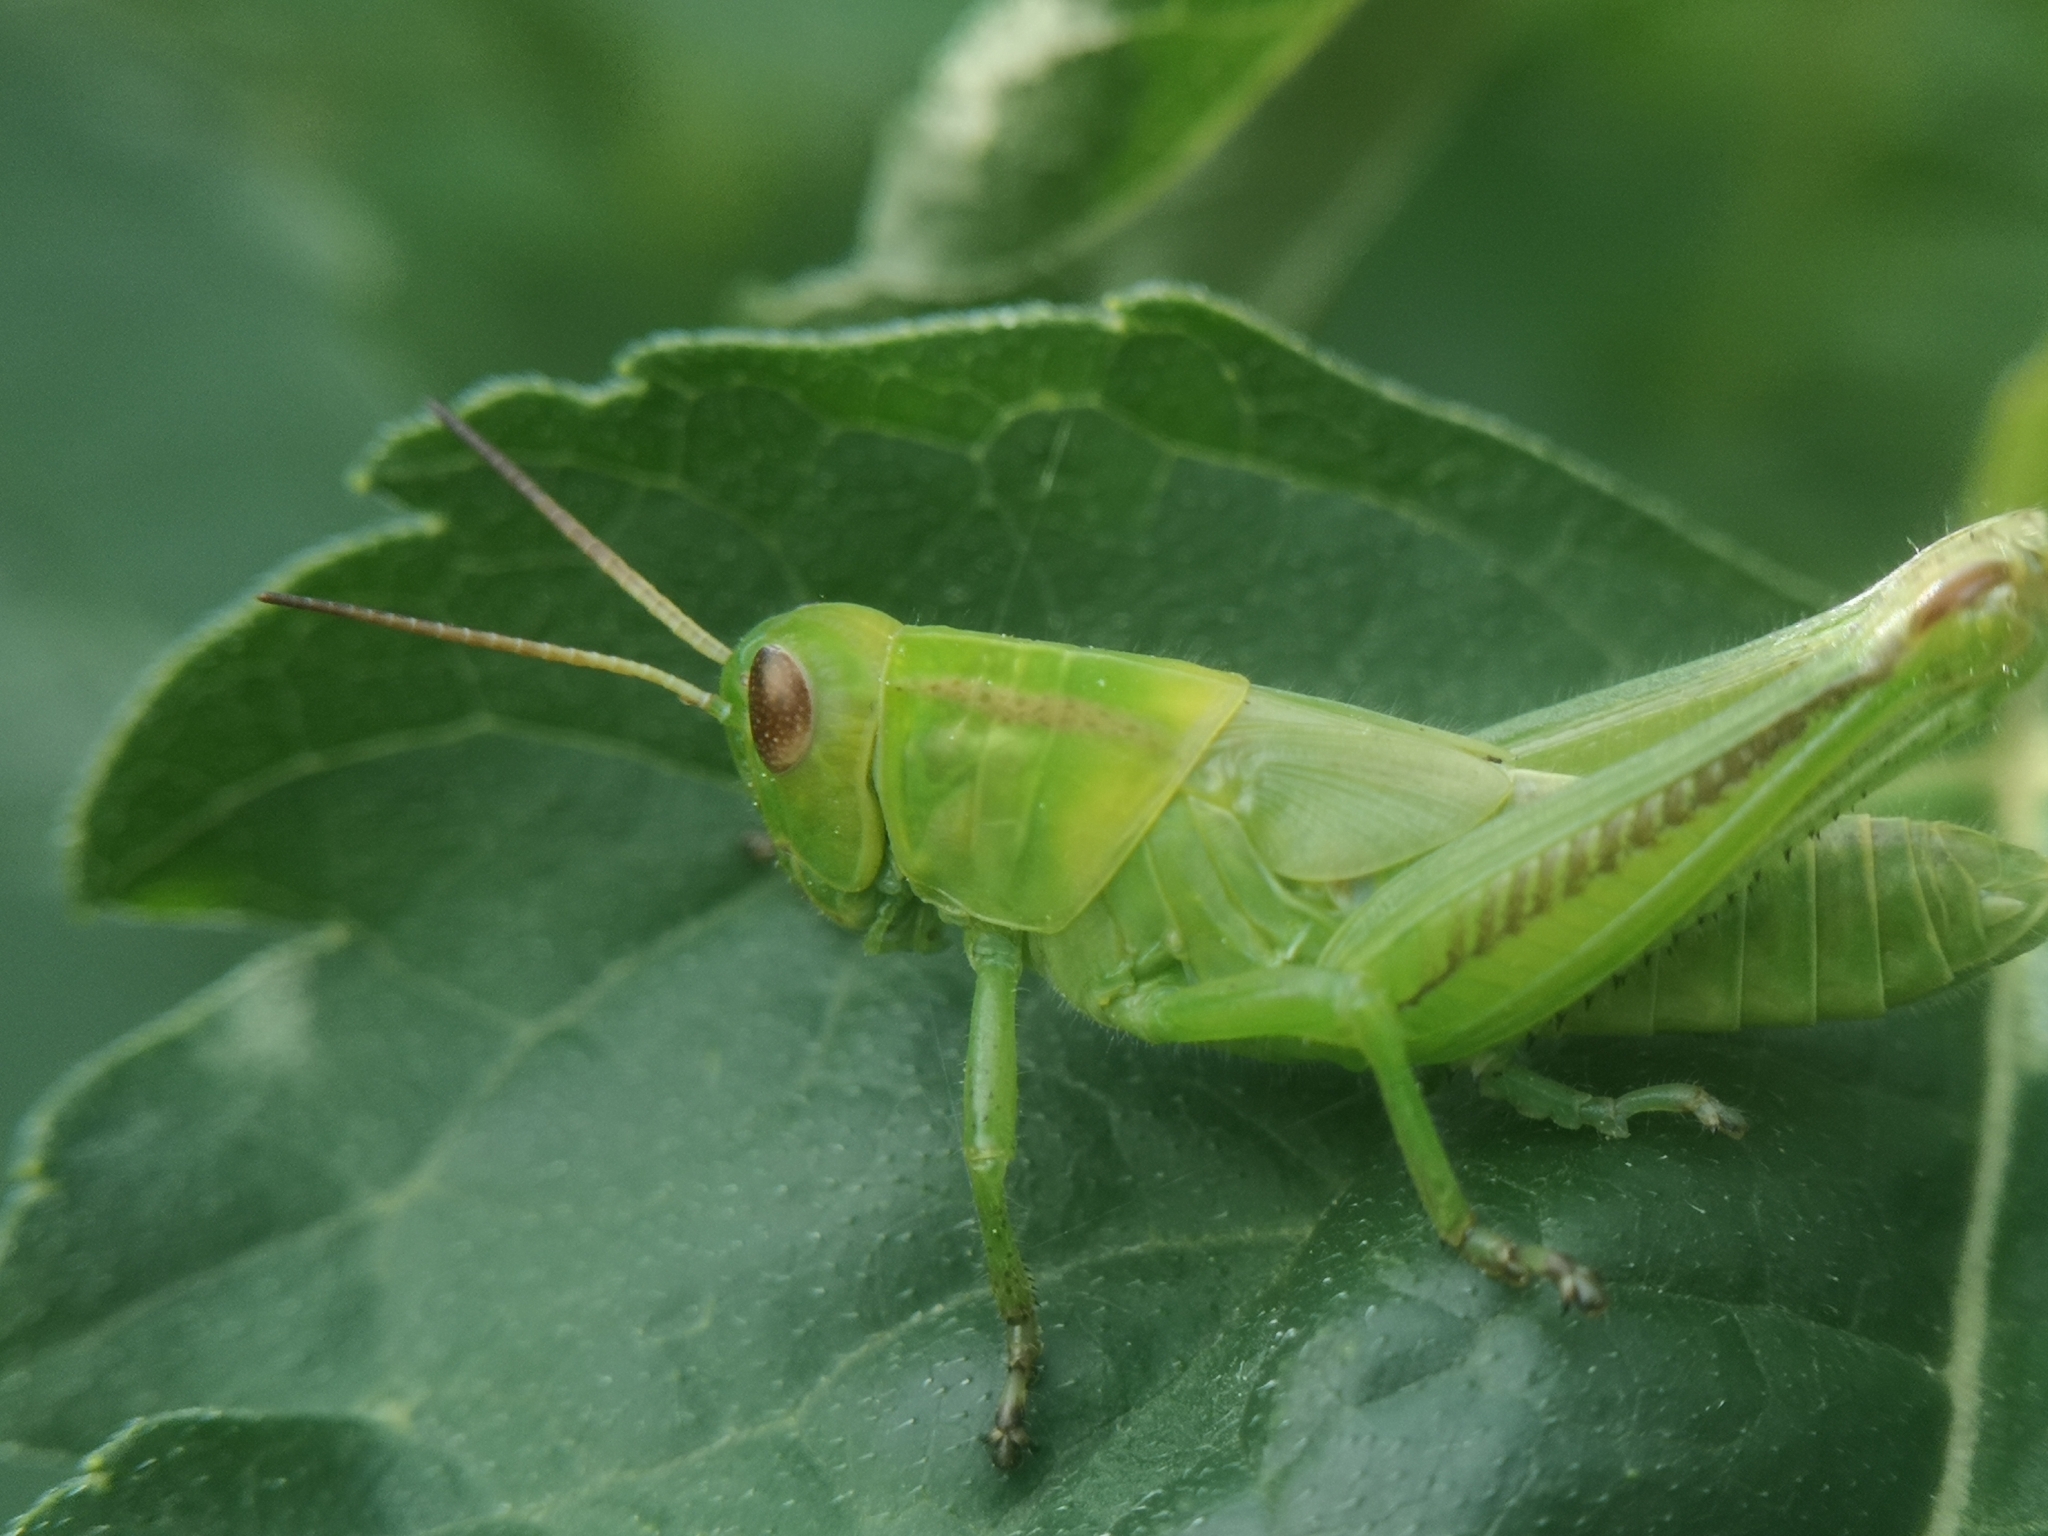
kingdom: Animalia
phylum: Arthropoda
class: Insecta
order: Orthoptera
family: Acrididae
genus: Melanoplus
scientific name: Melanoplus bivittatus
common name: Two-striped grasshopper
